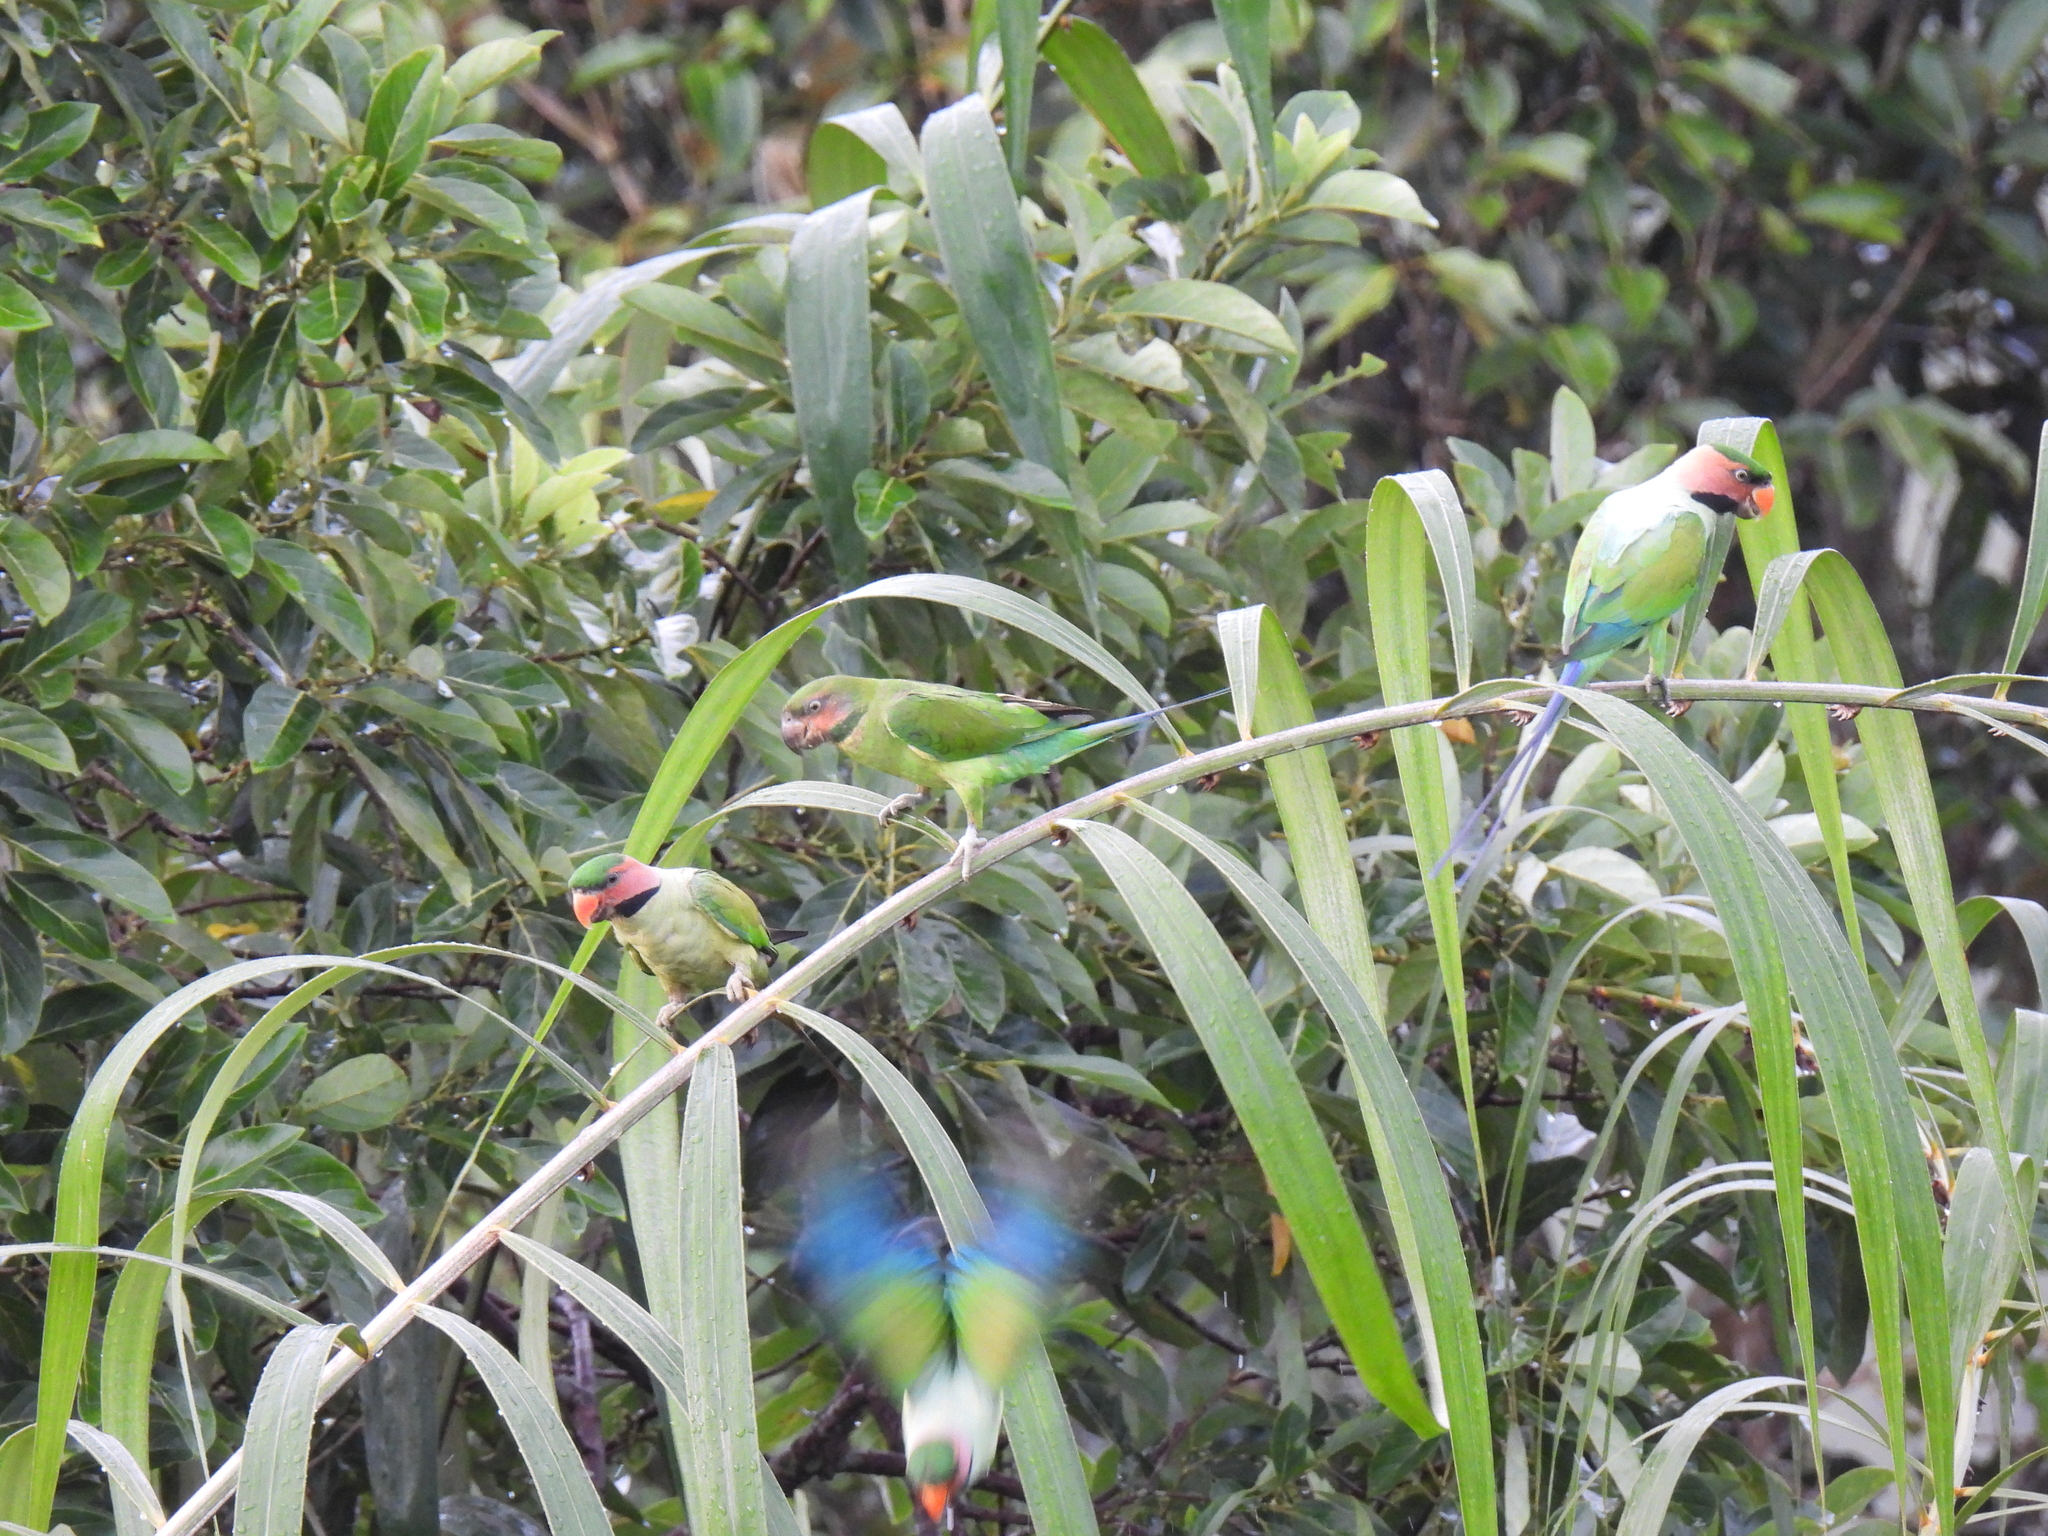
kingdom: Animalia
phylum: Chordata
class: Aves
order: Psittaciformes
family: Psittacidae
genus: Psittacula
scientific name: Psittacula longicauda
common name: Long-tailed parakeet
